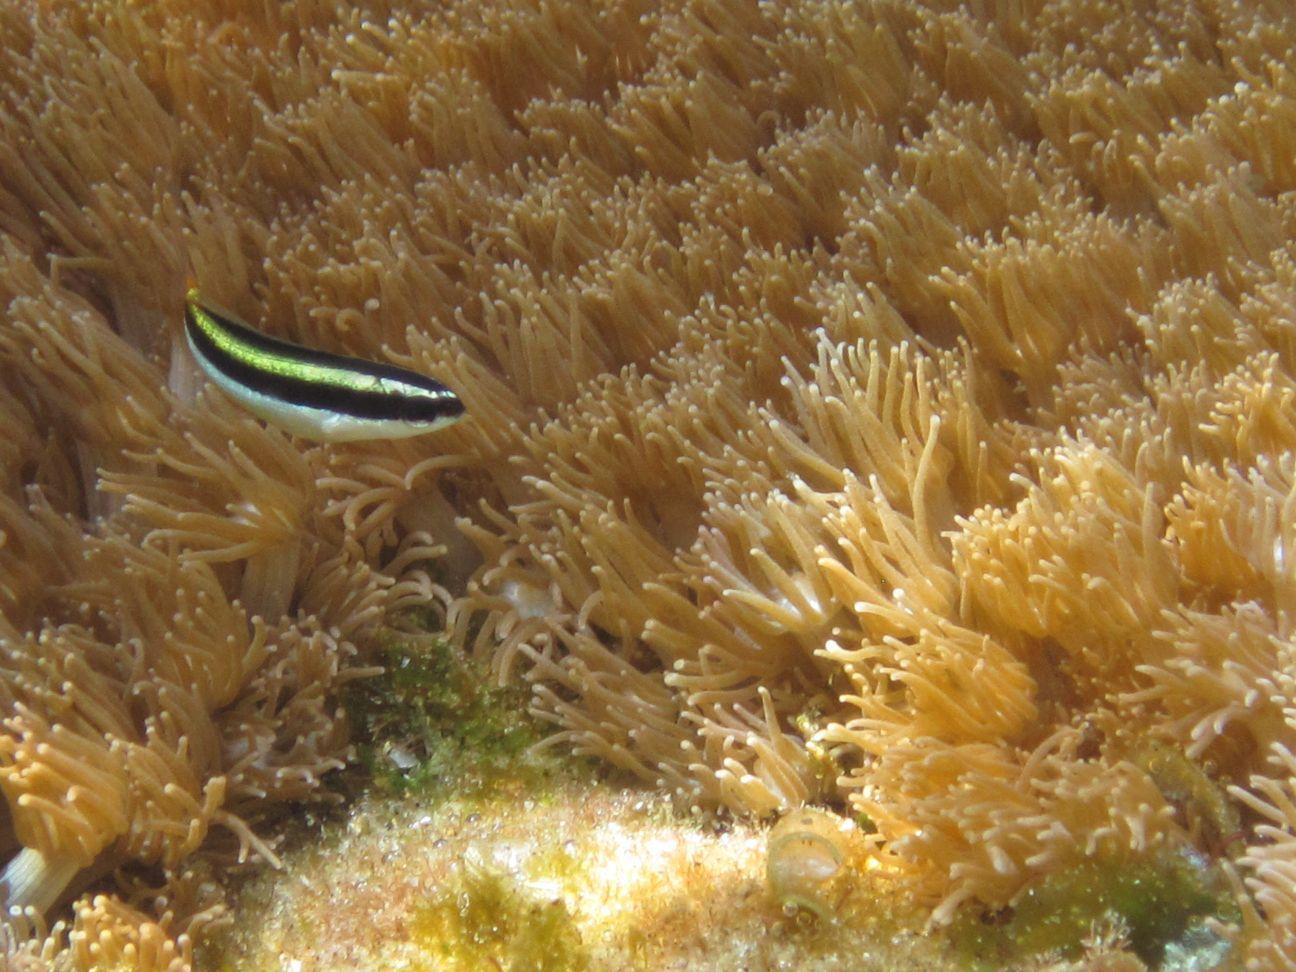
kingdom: Animalia
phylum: Chordata
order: Perciformes
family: Labridae
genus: Thalassoma
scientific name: Thalassoma amblycephalum
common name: Bluehead wrasse
